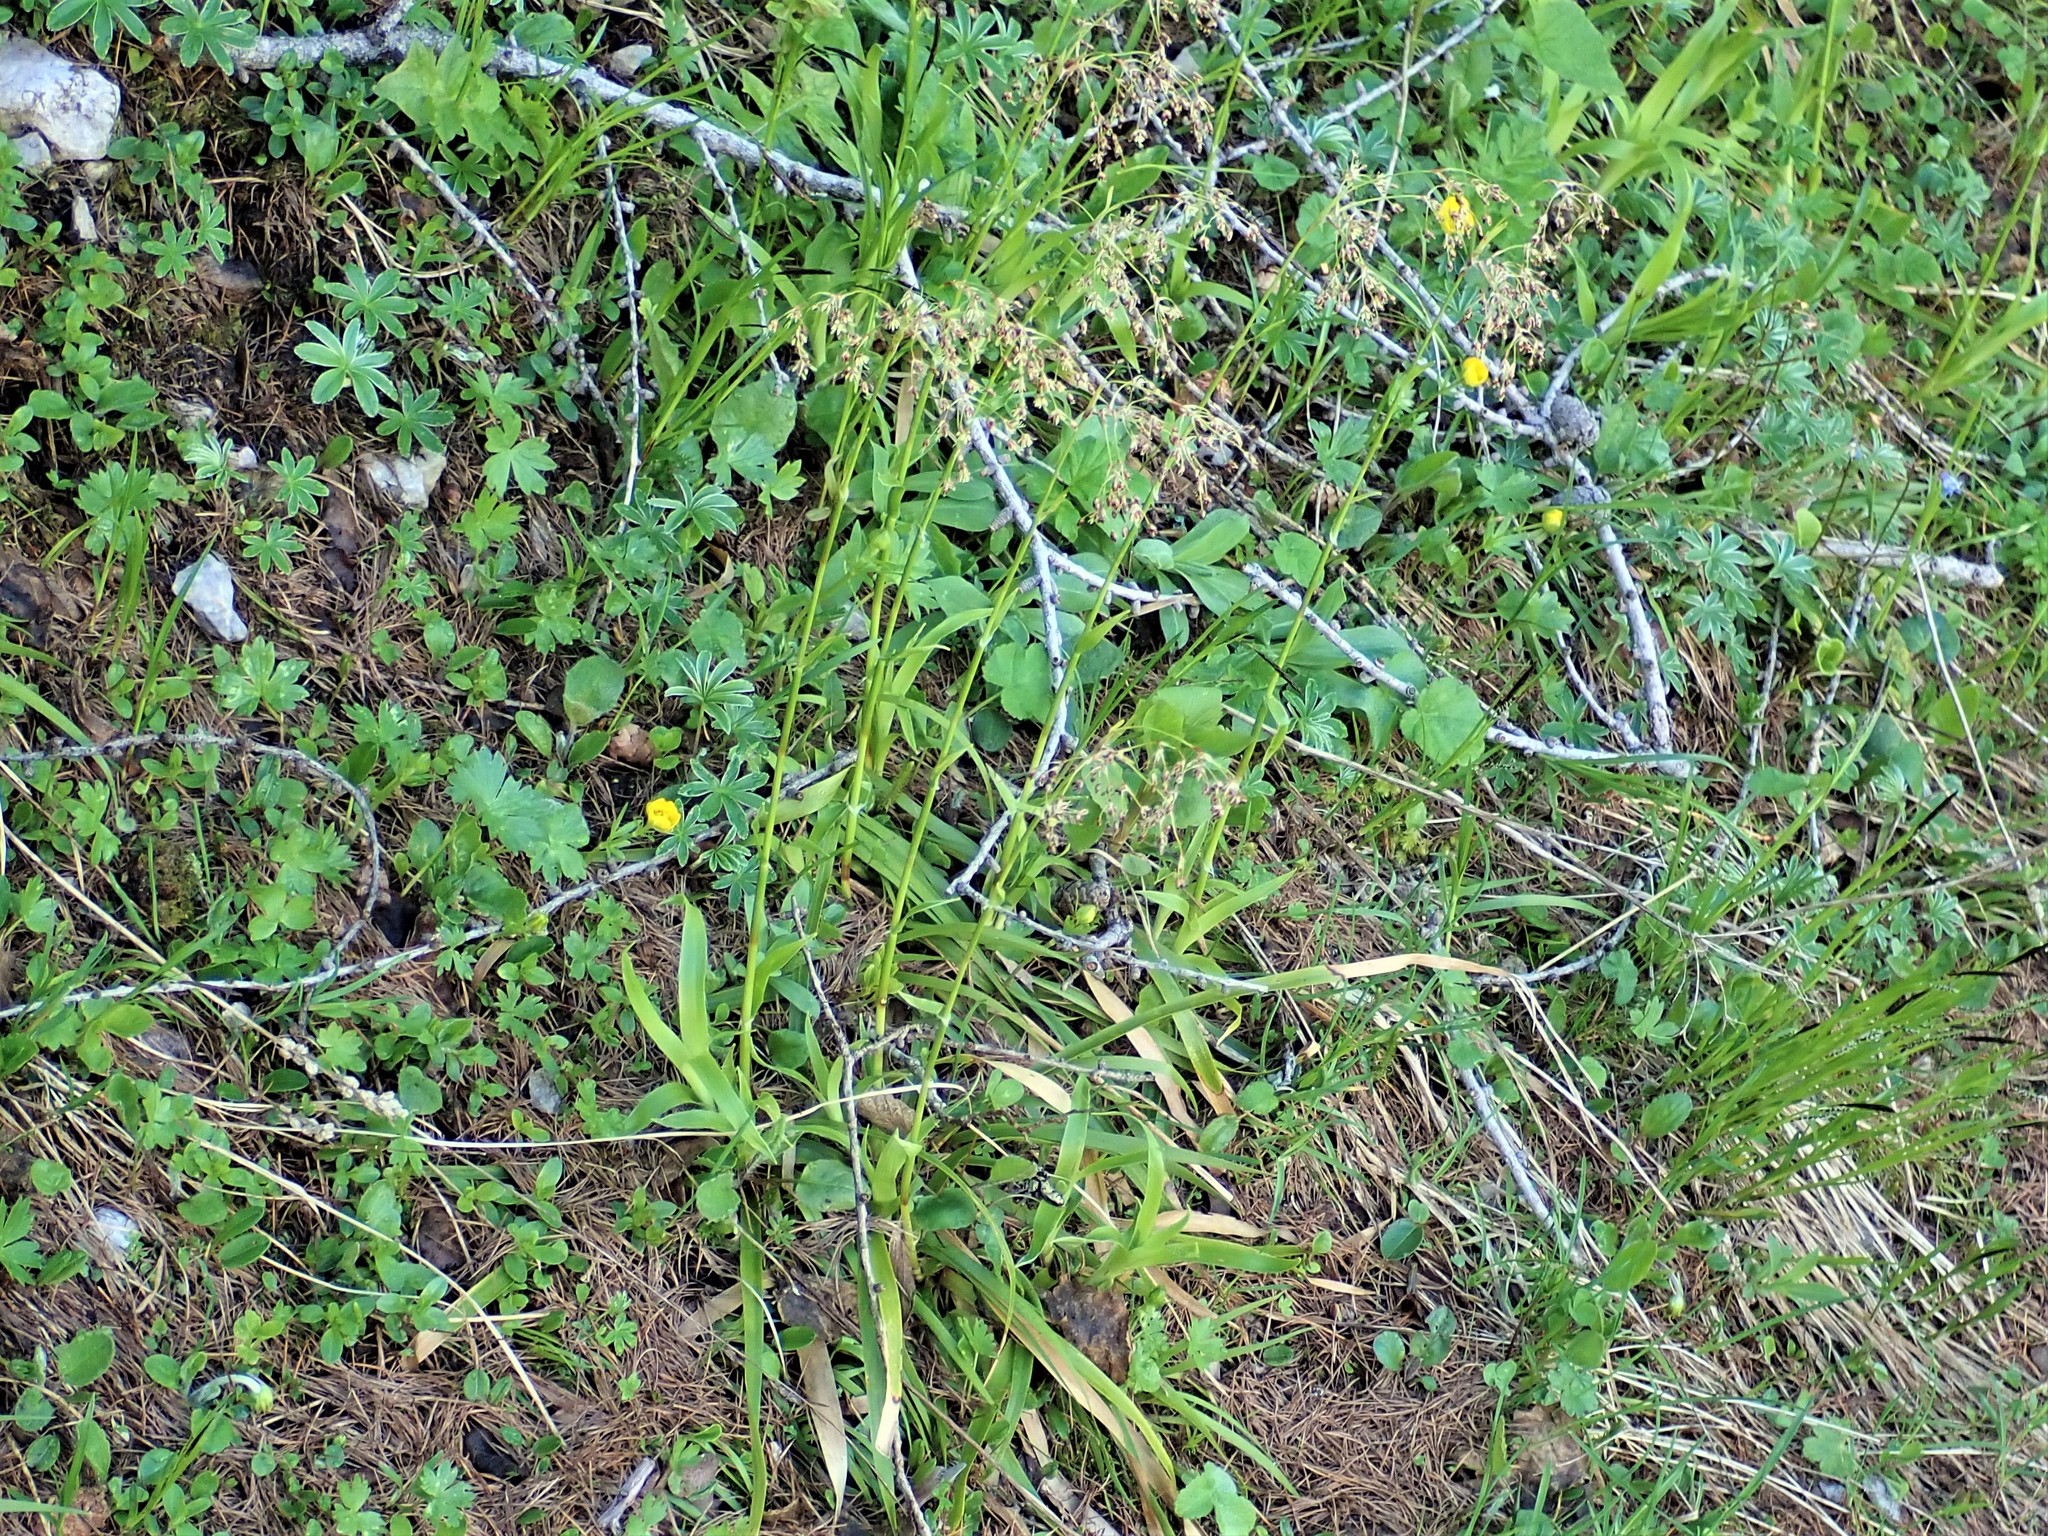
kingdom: Plantae
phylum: Tracheophyta
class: Liliopsida
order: Poales
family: Juncaceae
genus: Luzula
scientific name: Luzula sylvatica
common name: Great wood-rush
